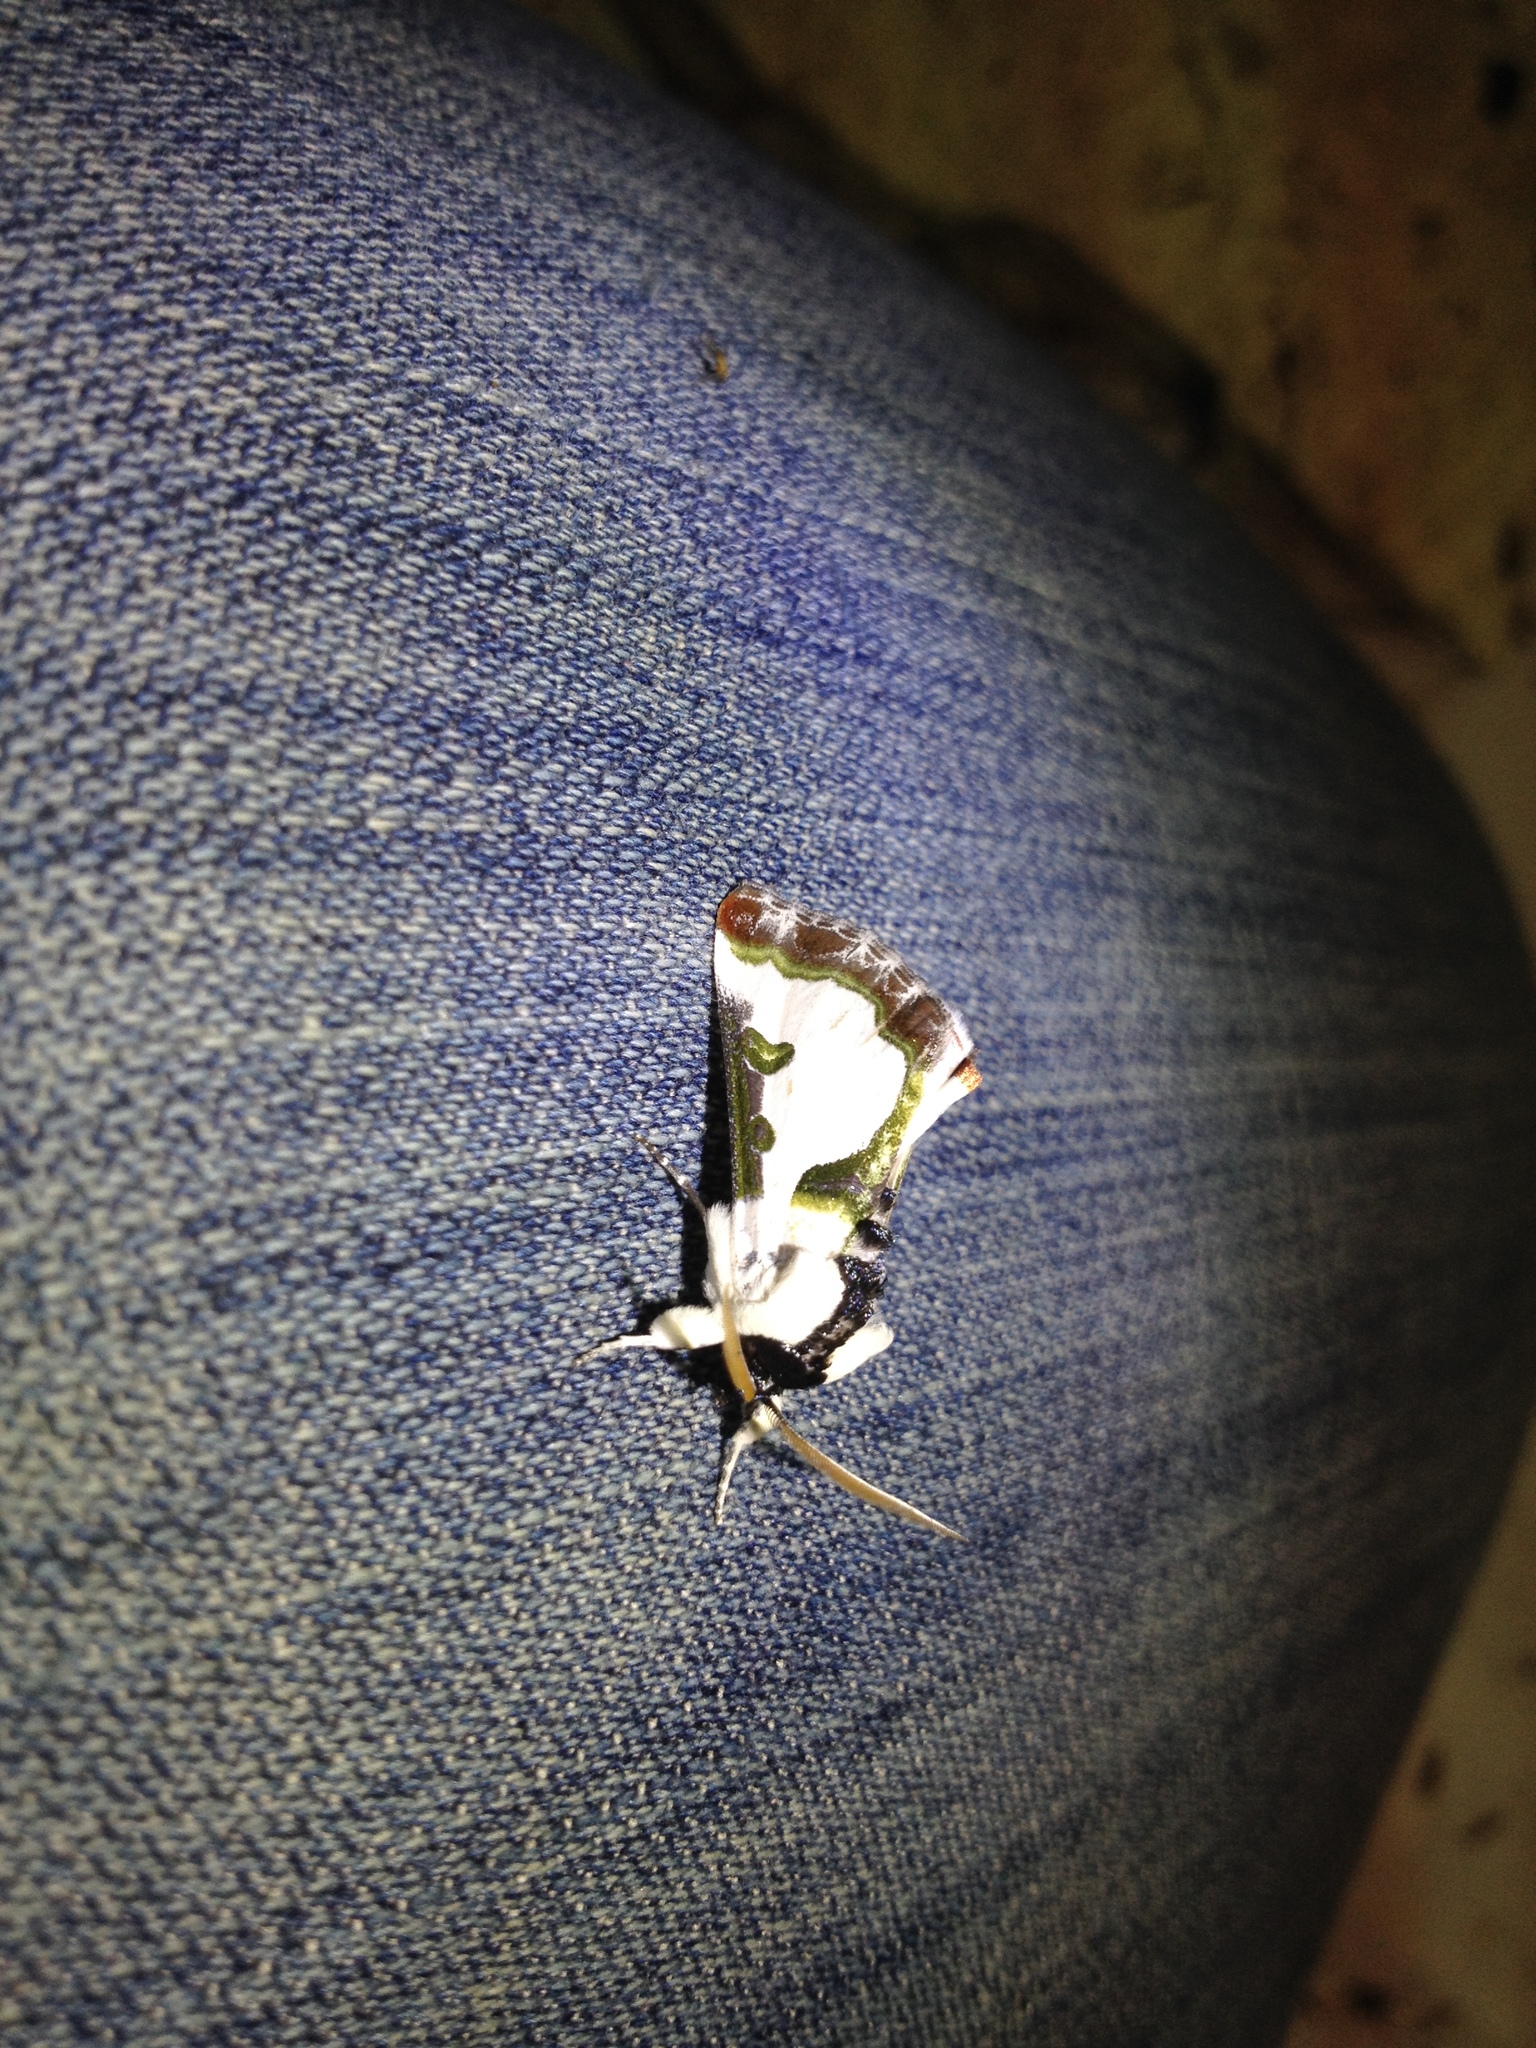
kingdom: Animalia
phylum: Arthropoda
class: Insecta
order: Lepidoptera
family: Noctuidae
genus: Xerociris
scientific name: Xerociris wilsonii
